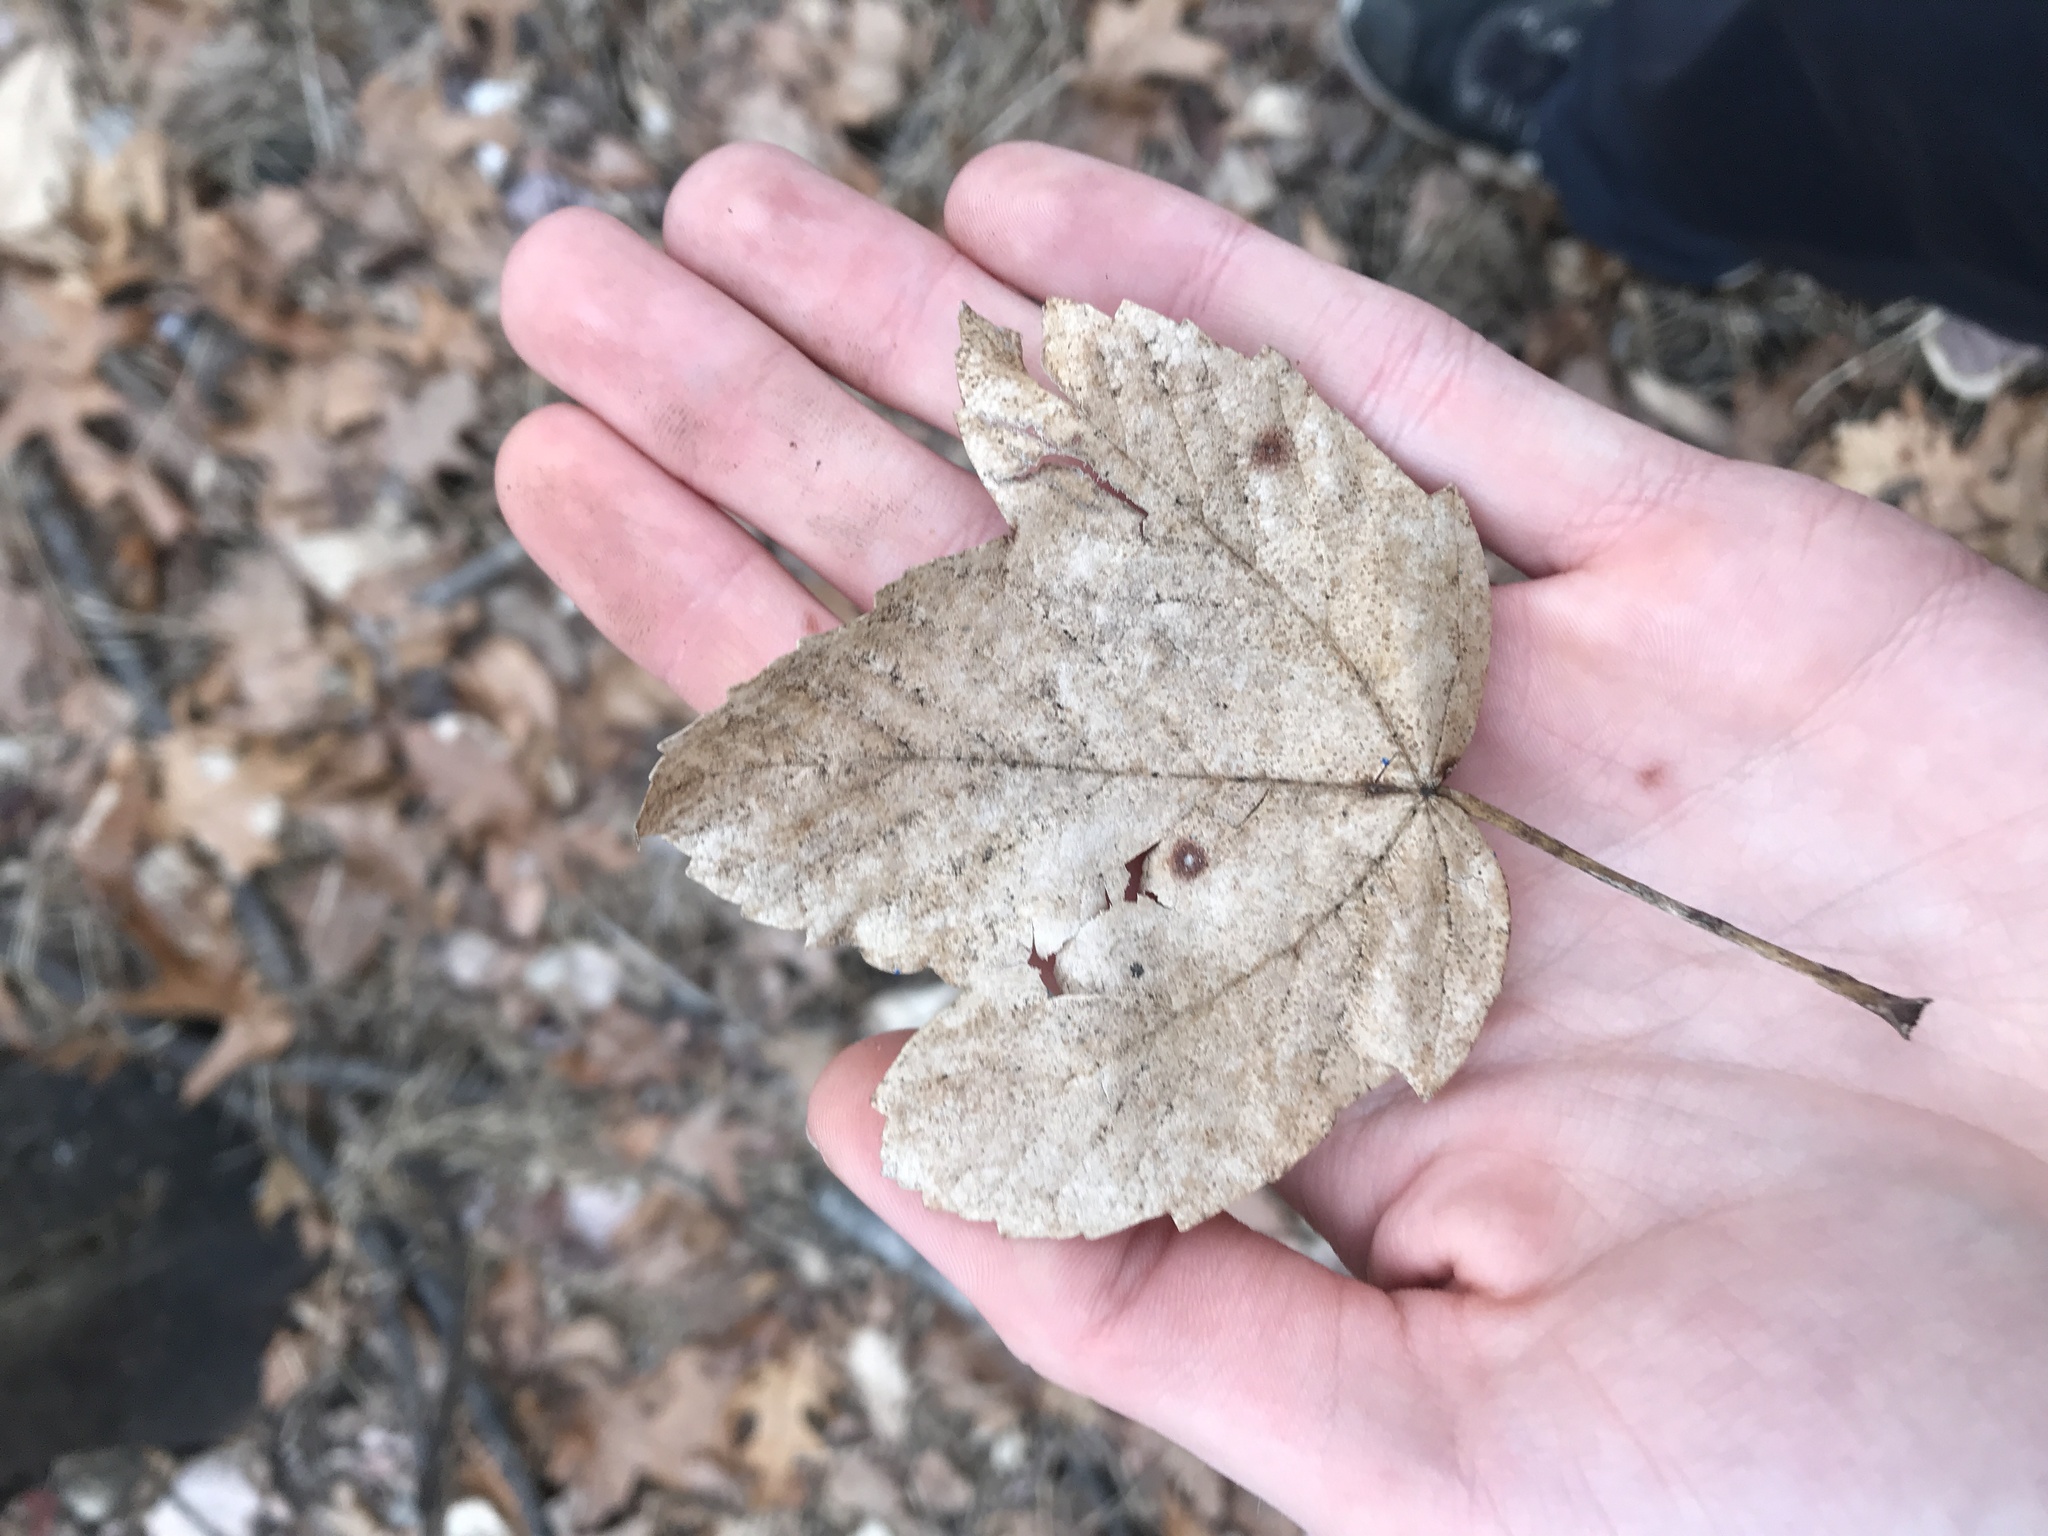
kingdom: Plantae
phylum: Tracheophyta
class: Magnoliopsida
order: Sapindales
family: Sapindaceae
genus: Acer
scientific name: Acer rubrum
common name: Red maple
